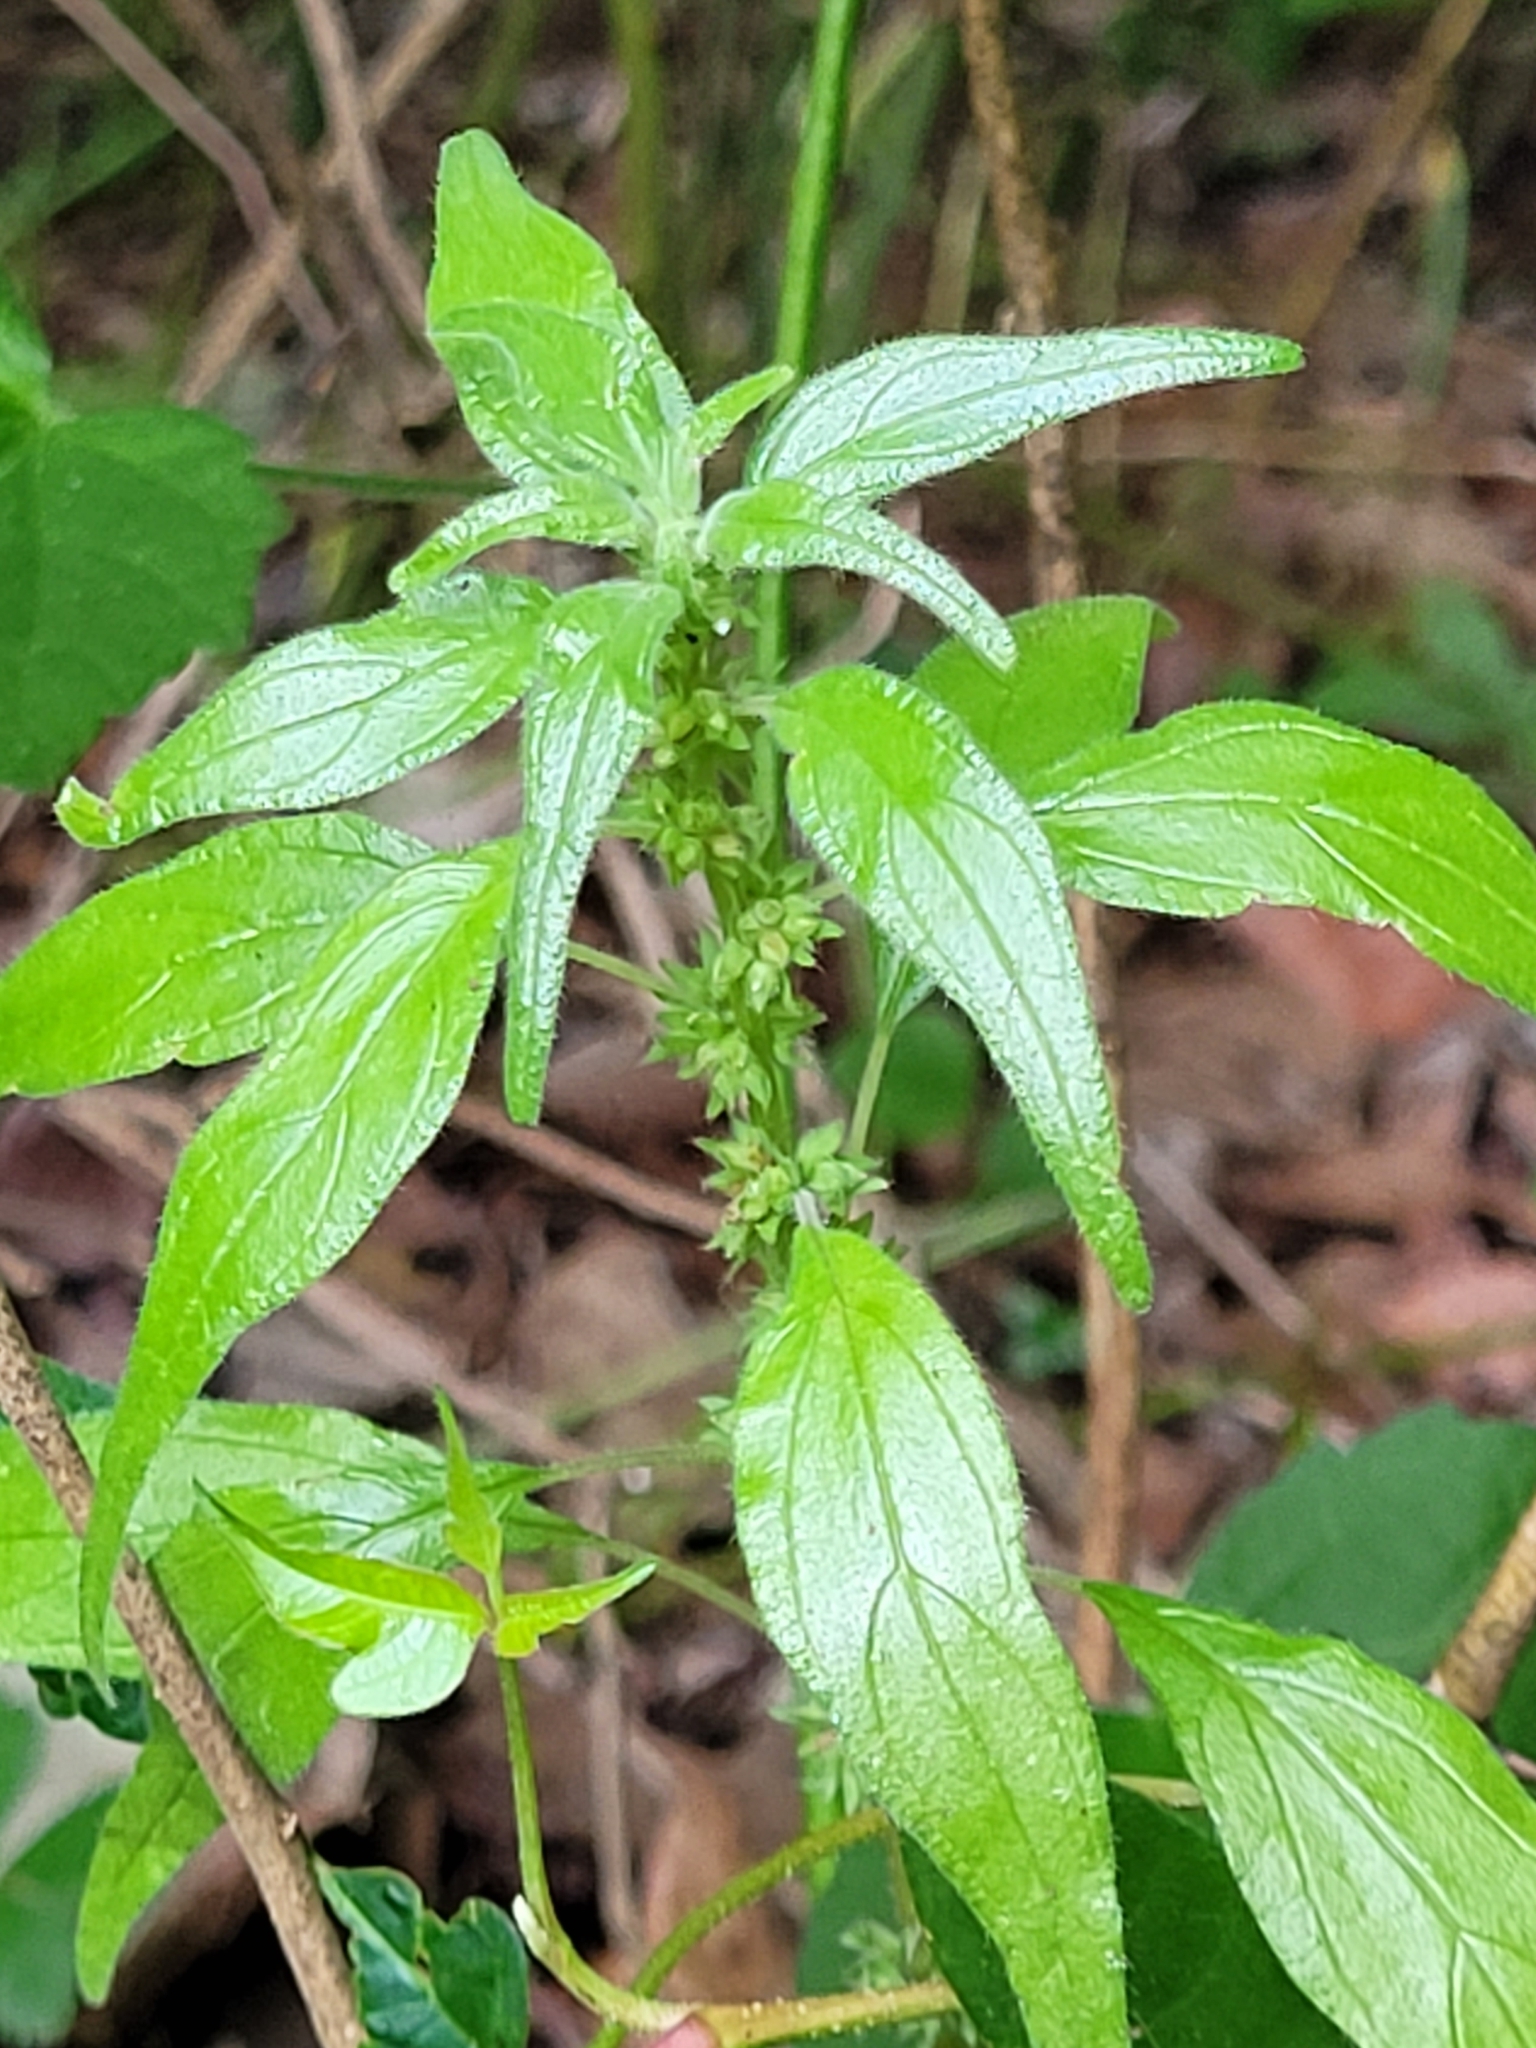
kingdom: Plantae
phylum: Tracheophyta
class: Magnoliopsida
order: Rosales
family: Urticaceae
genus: Parietaria
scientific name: Parietaria pensylvanica
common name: Pennsylvania pellitory
